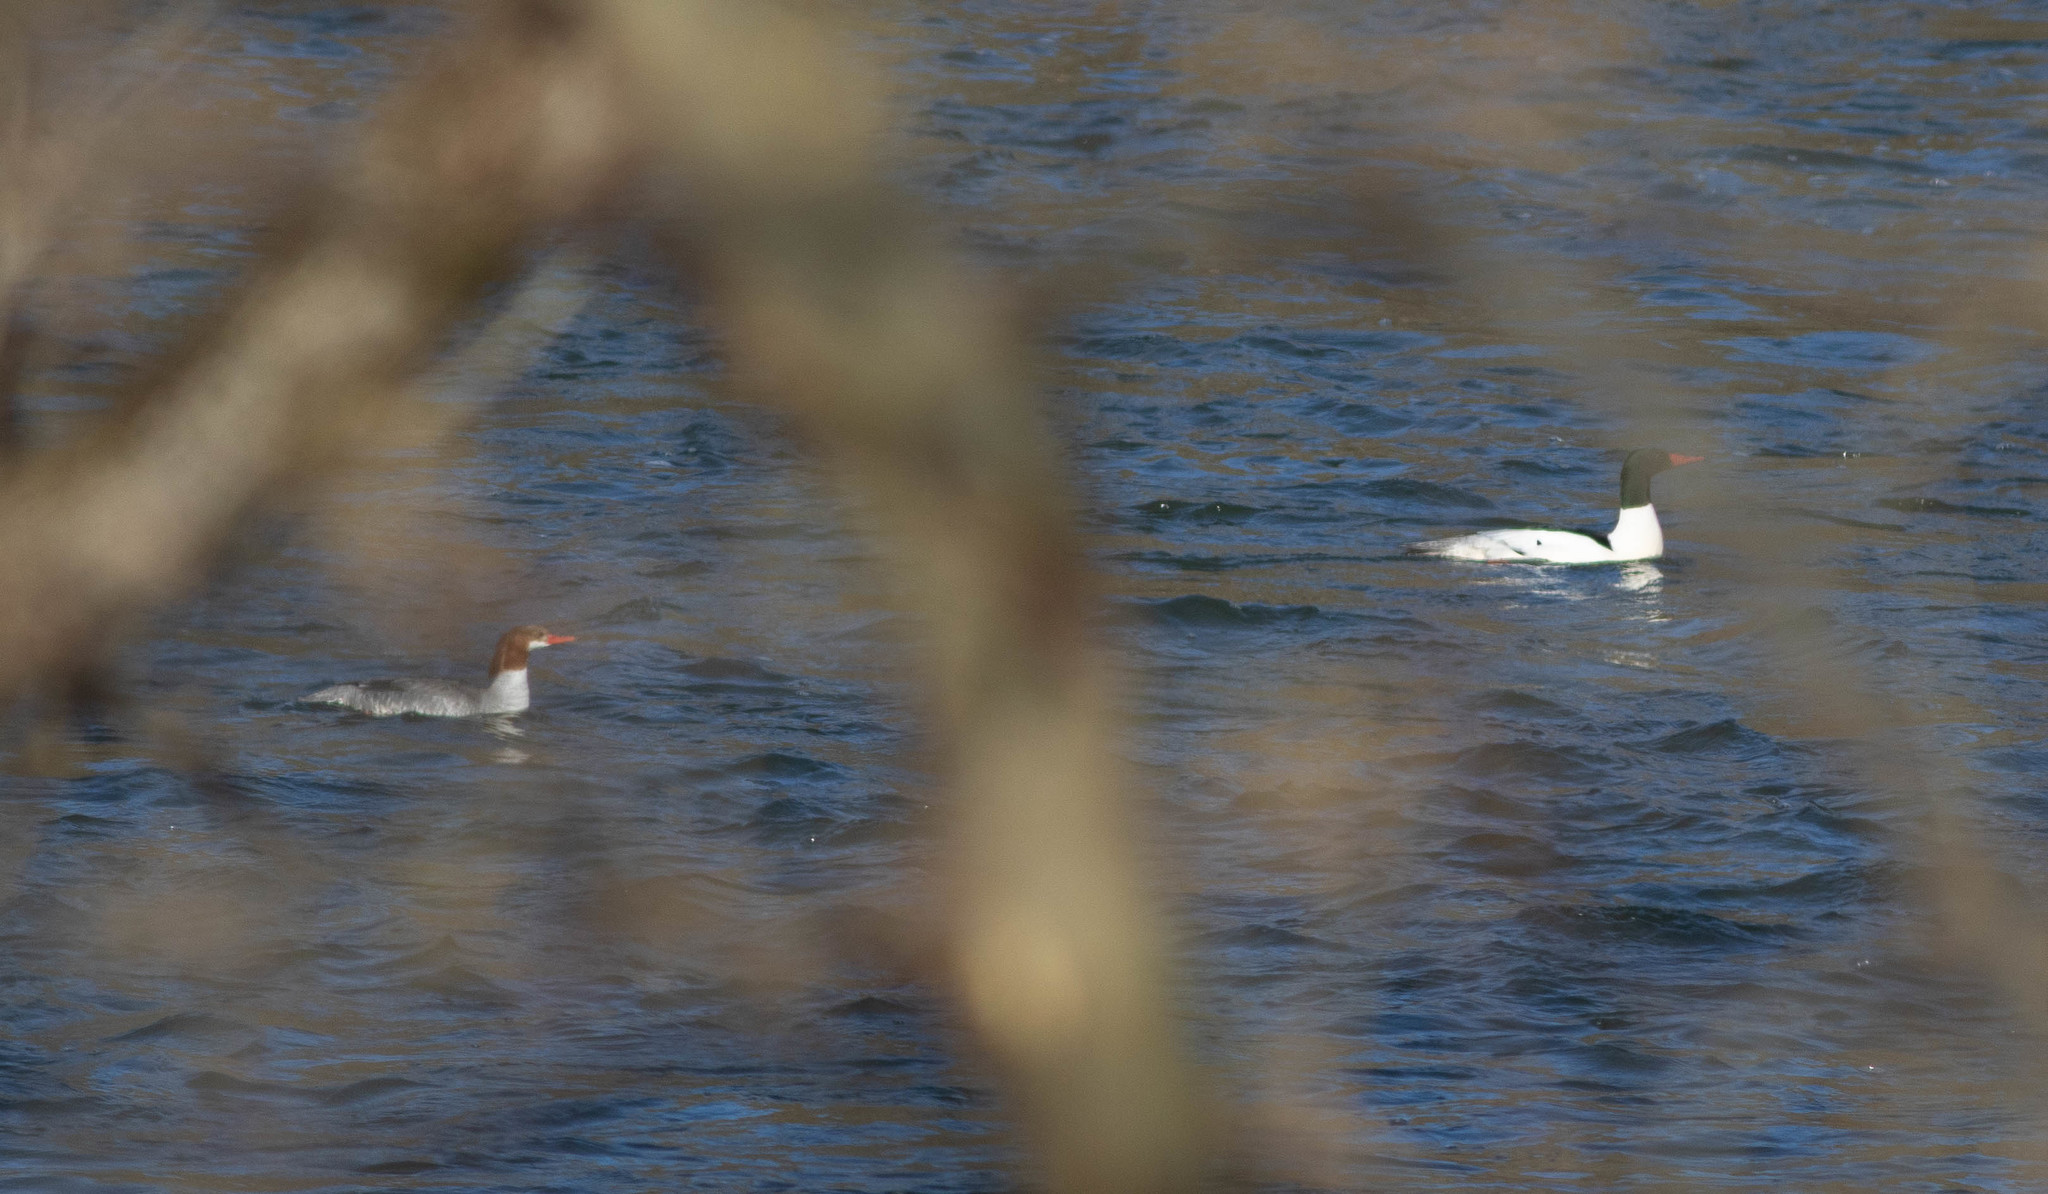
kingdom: Animalia
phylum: Chordata
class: Aves
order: Anseriformes
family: Anatidae
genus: Mergus
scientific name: Mergus merganser
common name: Common merganser
